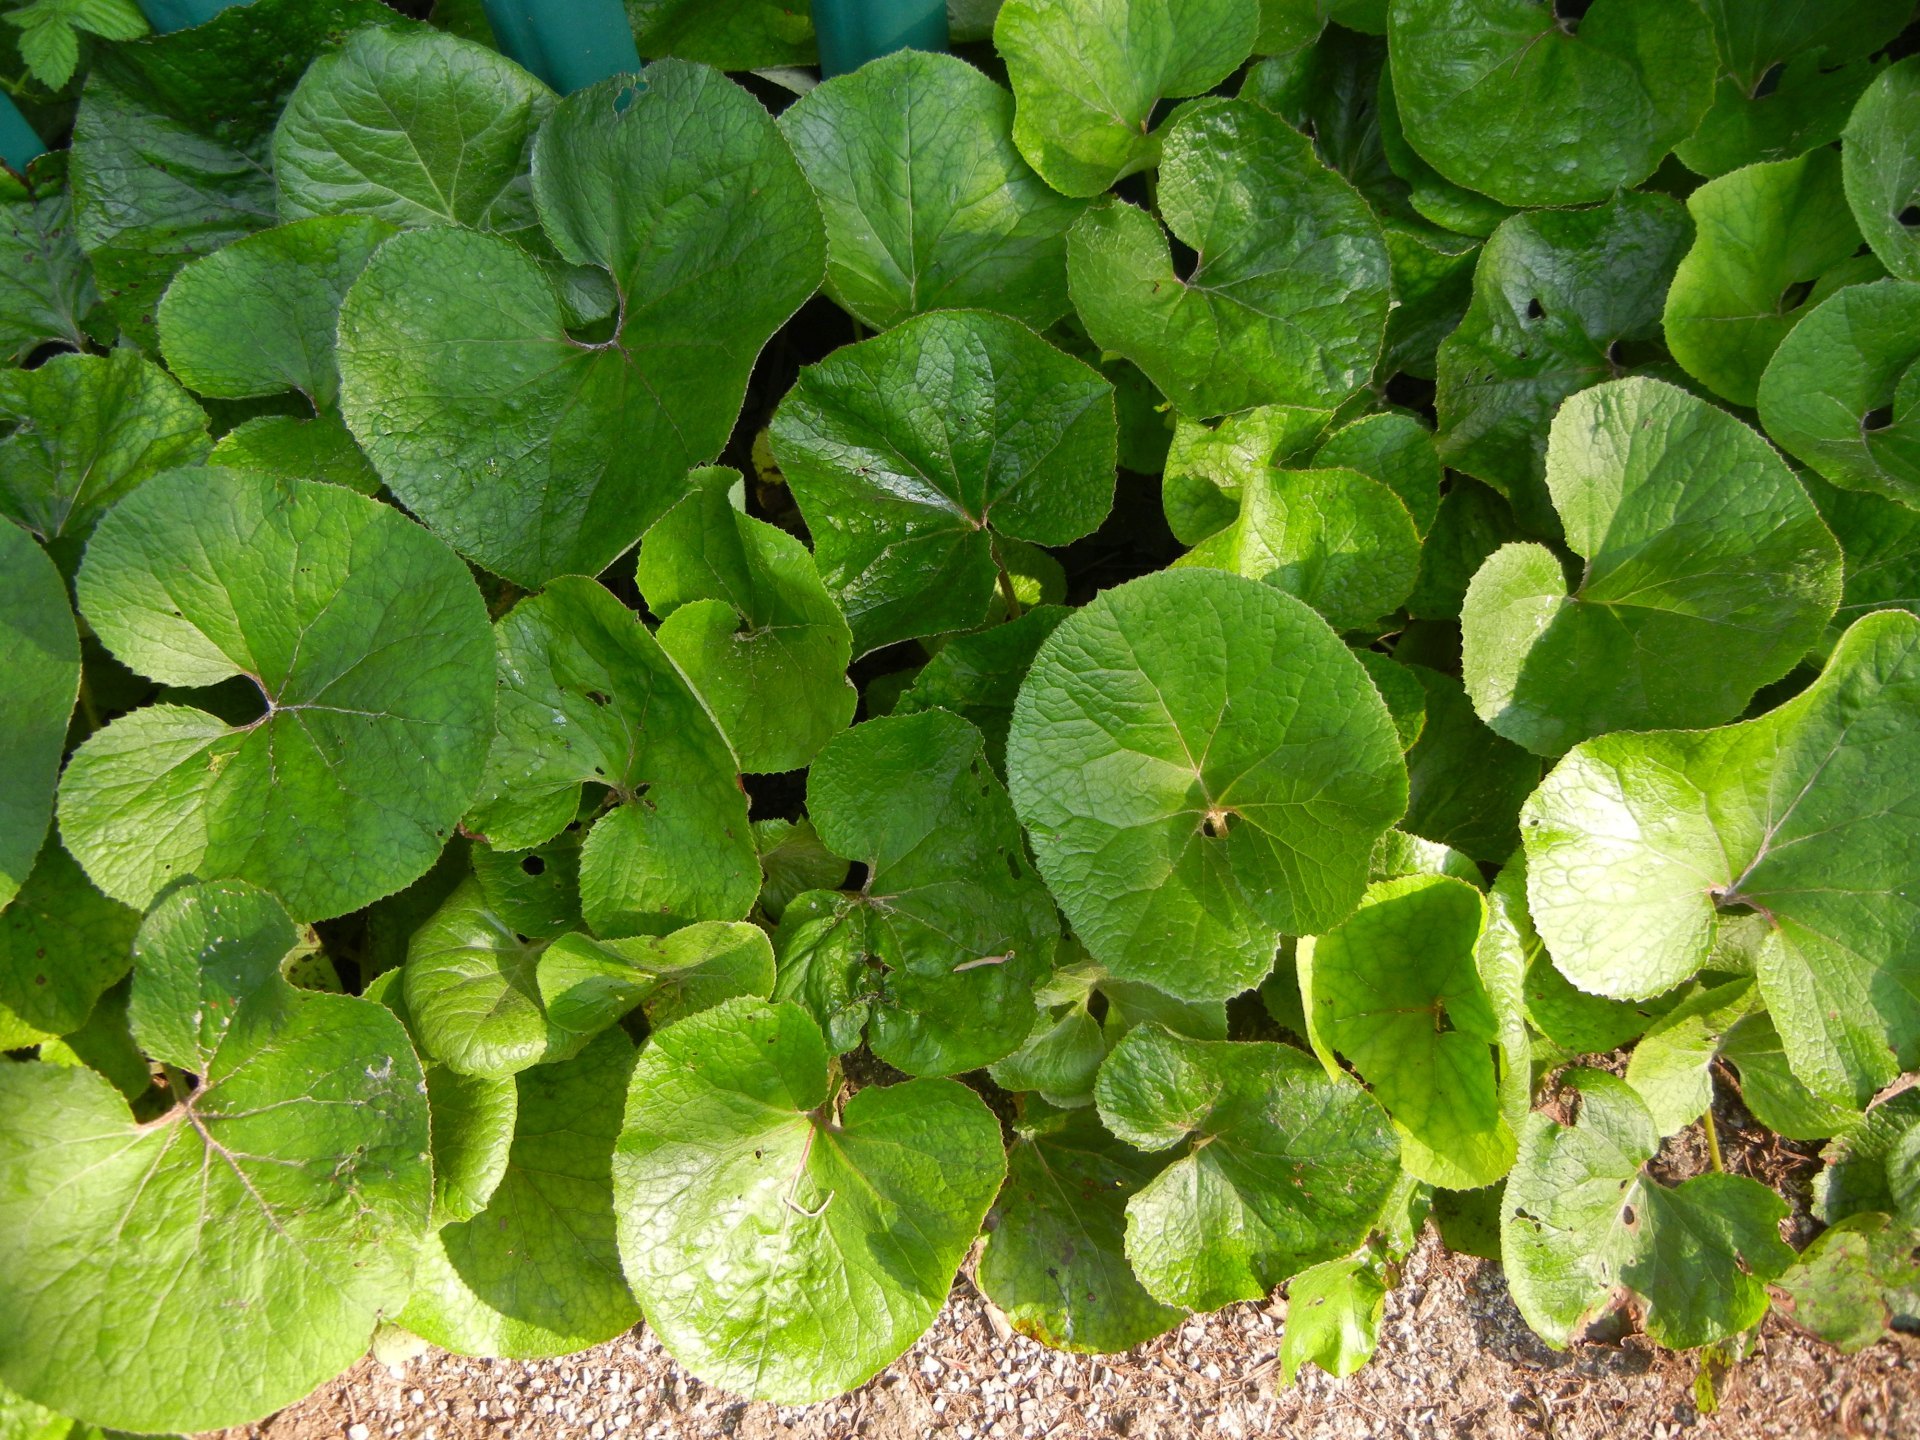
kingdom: Plantae
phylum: Tracheophyta
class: Magnoliopsida
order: Asterales
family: Asteraceae
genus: Petasites
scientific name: Petasites pyrenaicus
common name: Winter heliotrope
